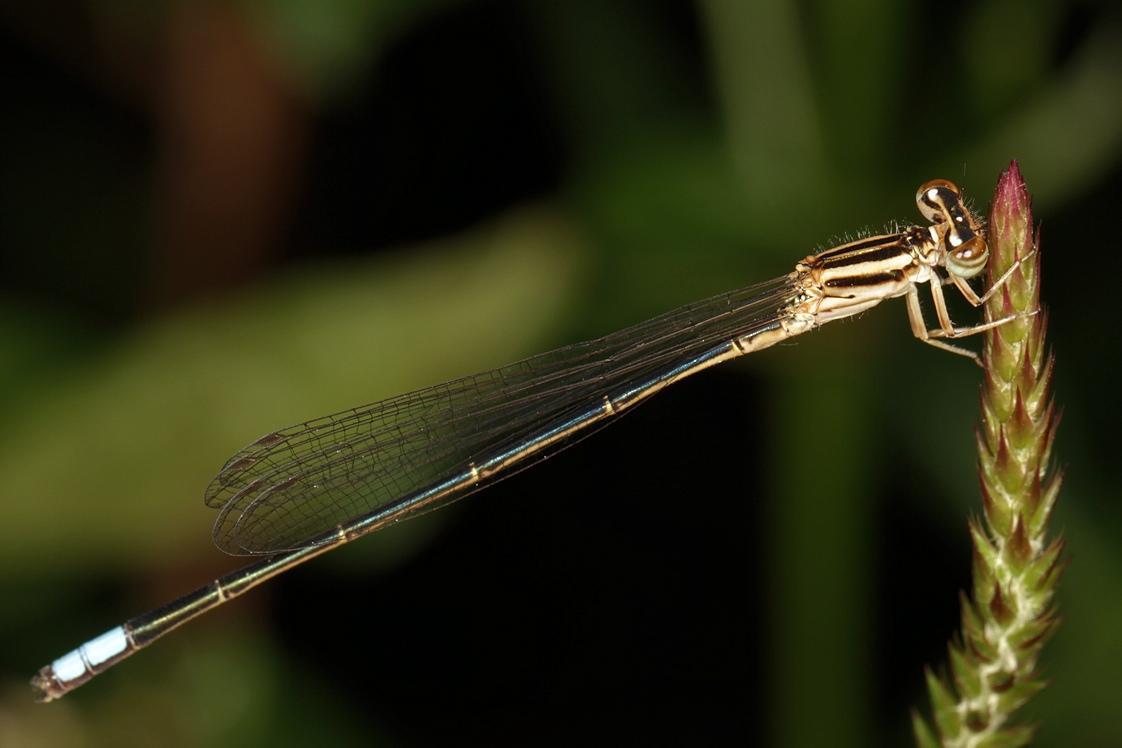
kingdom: Animalia
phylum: Arthropoda
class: Insecta
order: Odonata
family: Coenagrionidae
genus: Pseudagrion
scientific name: Pseudagrion hageni
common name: Painted sprite
